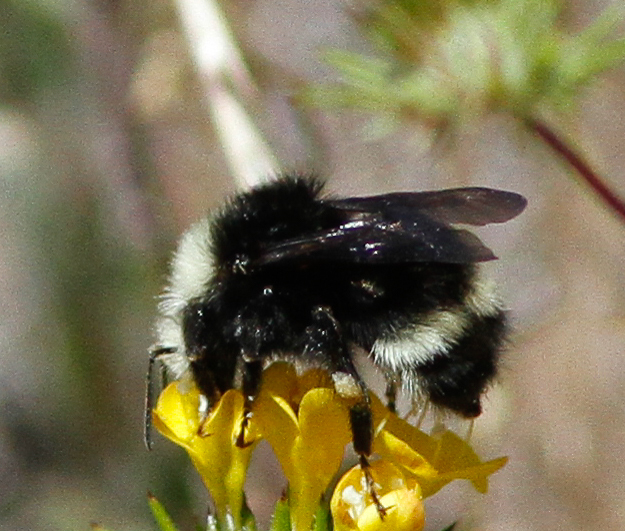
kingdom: Animalia
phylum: Arthropoda
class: Insecta
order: Hymenoptera
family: Apidae
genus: Bombus
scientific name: Bombus vandykei
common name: Van dyke bumble bee
